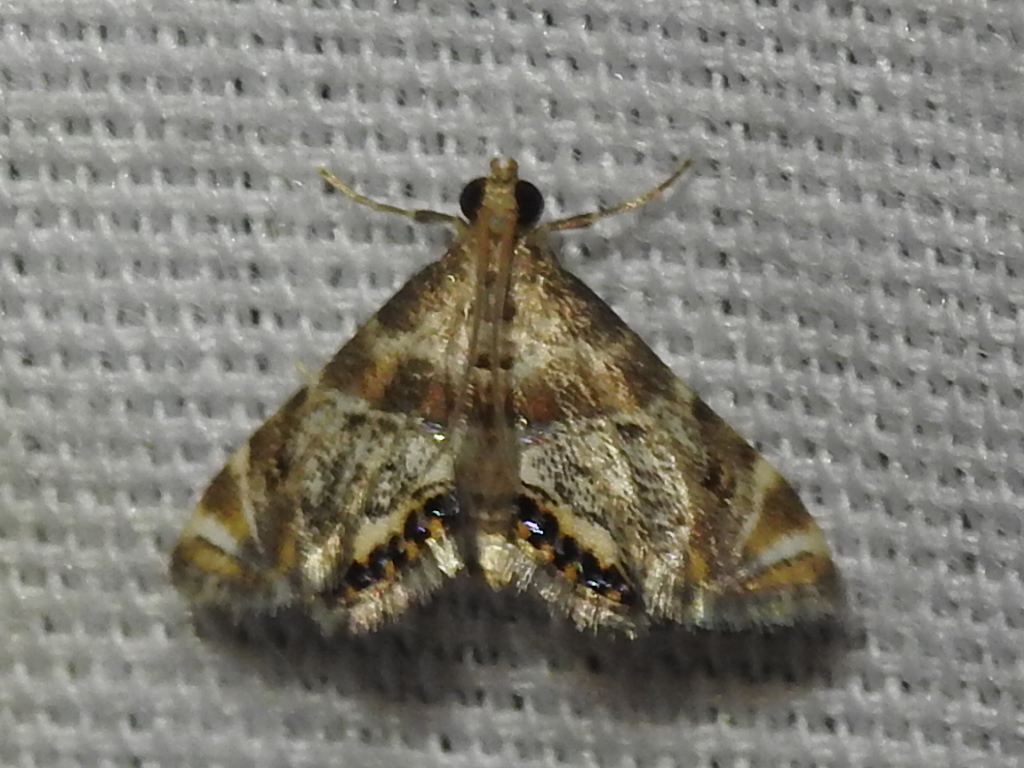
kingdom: Animalia
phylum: Arthropoda
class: Insecta
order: Lepidoptera
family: Crambidae
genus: Petrophila
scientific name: Petrophila fulicalis
